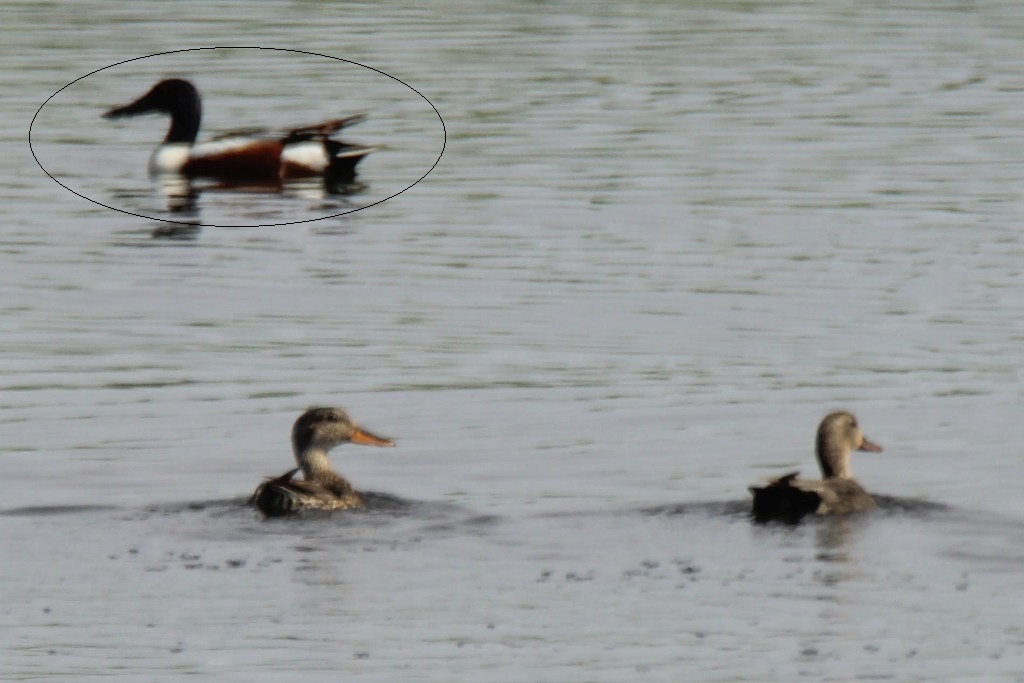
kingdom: Animalia
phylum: Chordata
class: Aves
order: Anseriformes
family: Anatidae
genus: Spatula
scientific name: Spatula clypeata
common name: Northern shoveler
